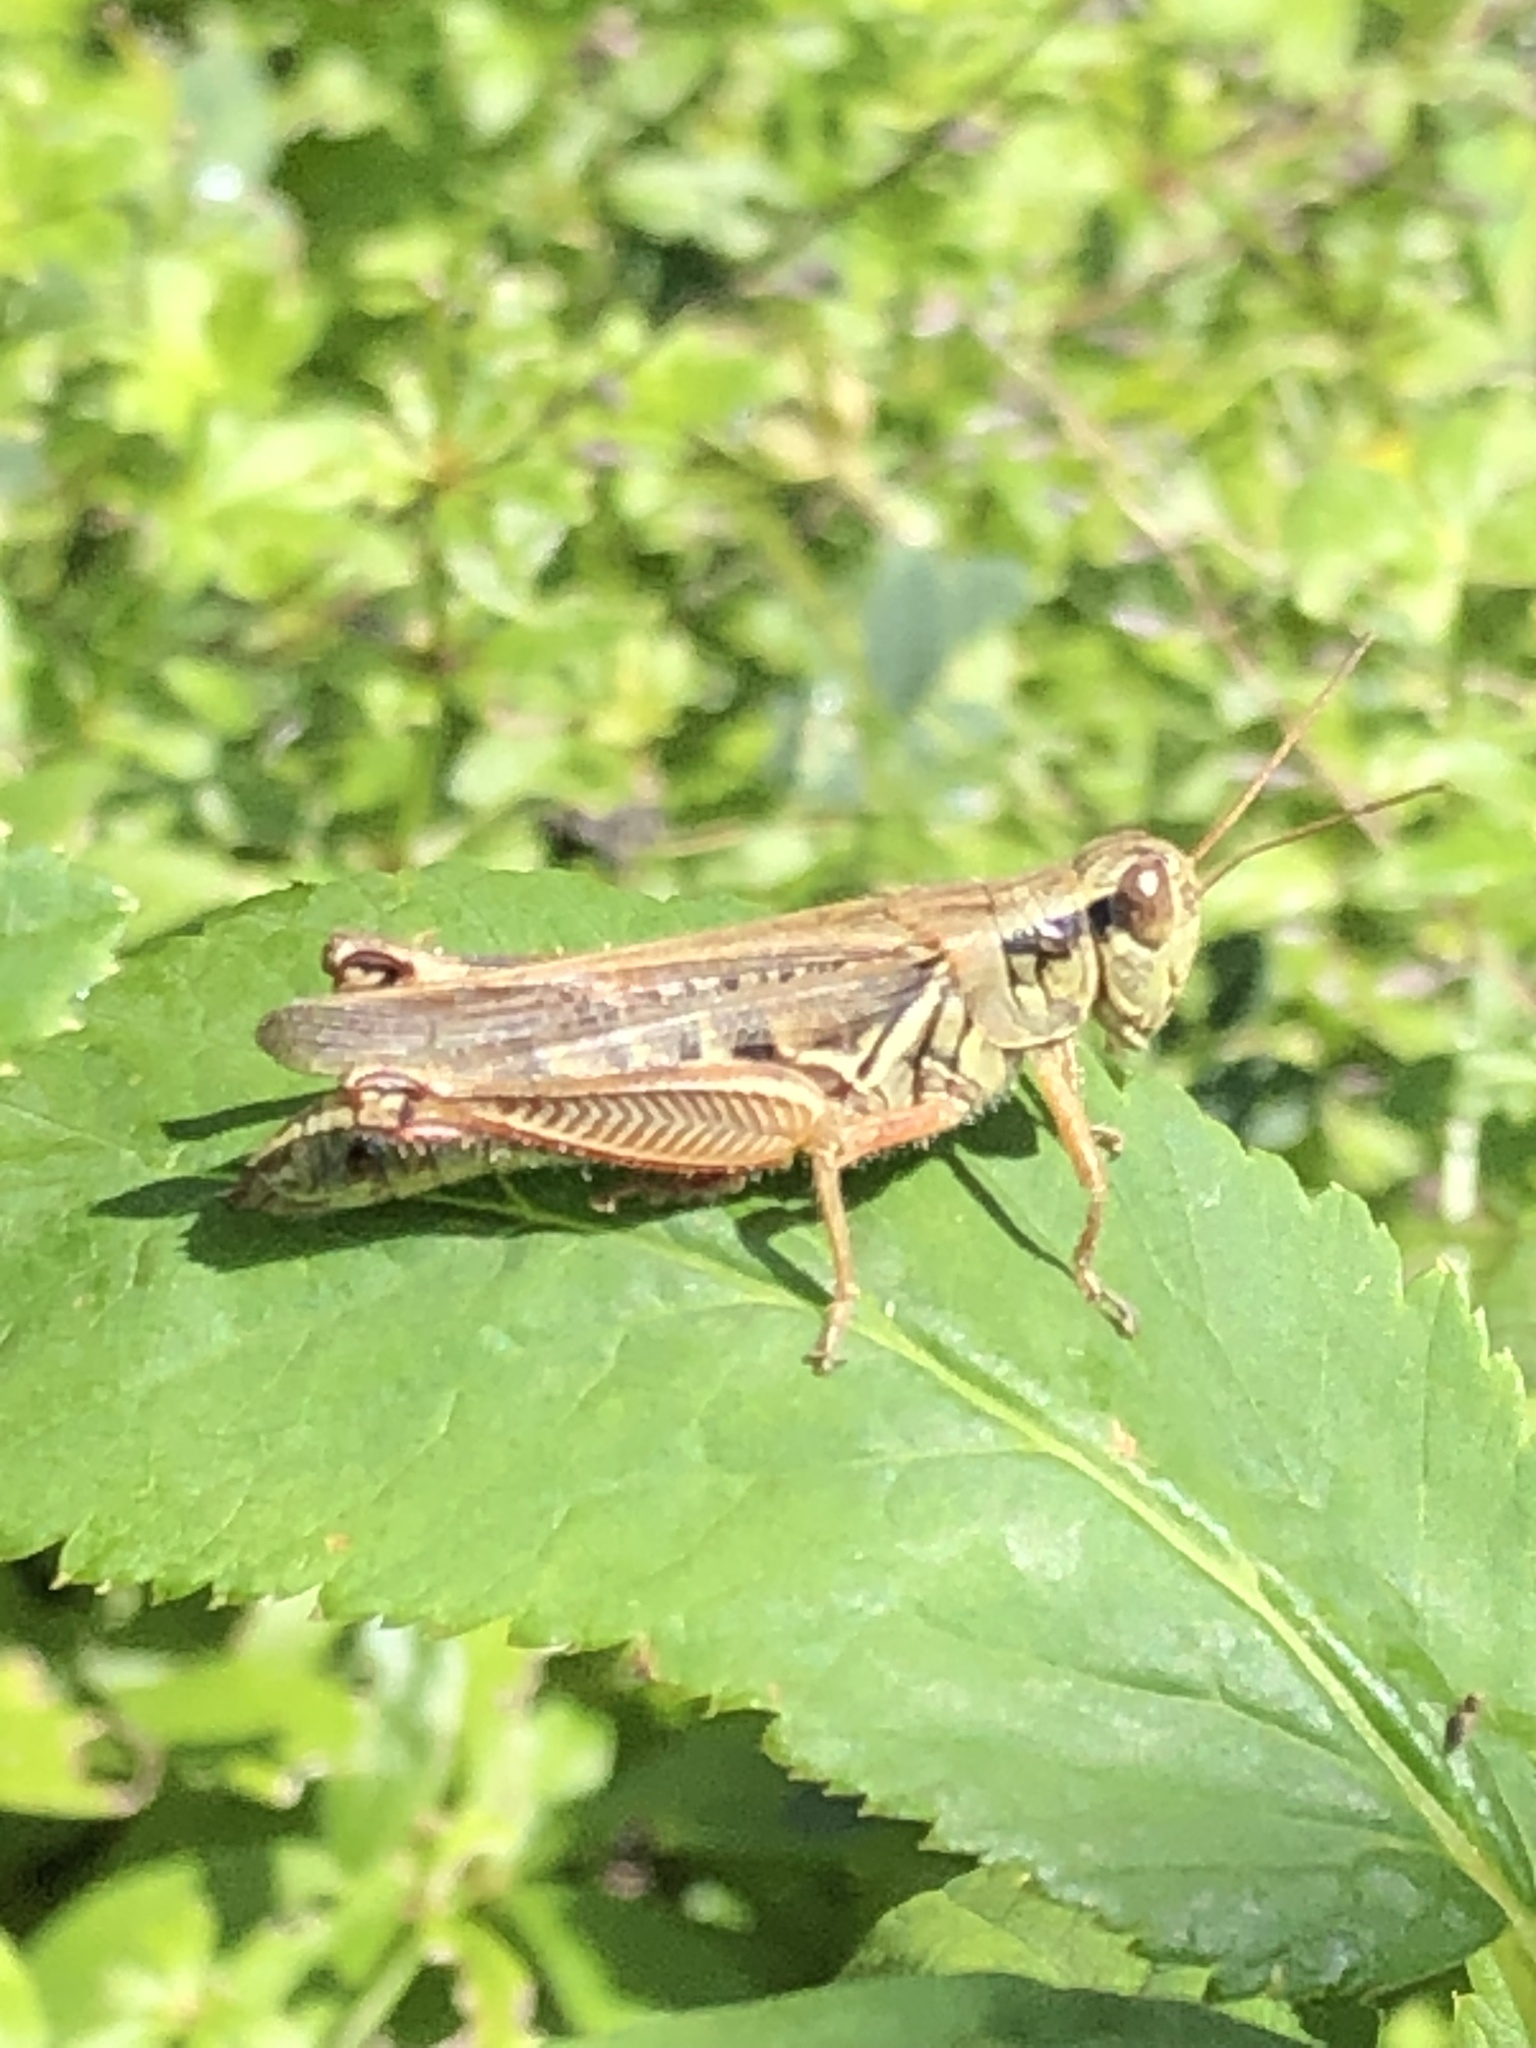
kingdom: Animalia
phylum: Arthropoda
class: Insecta
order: Orthoptera
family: Acrididae
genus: Melanoplus
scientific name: Melanoplus femurrubrum
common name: Red-legged grasshopper
